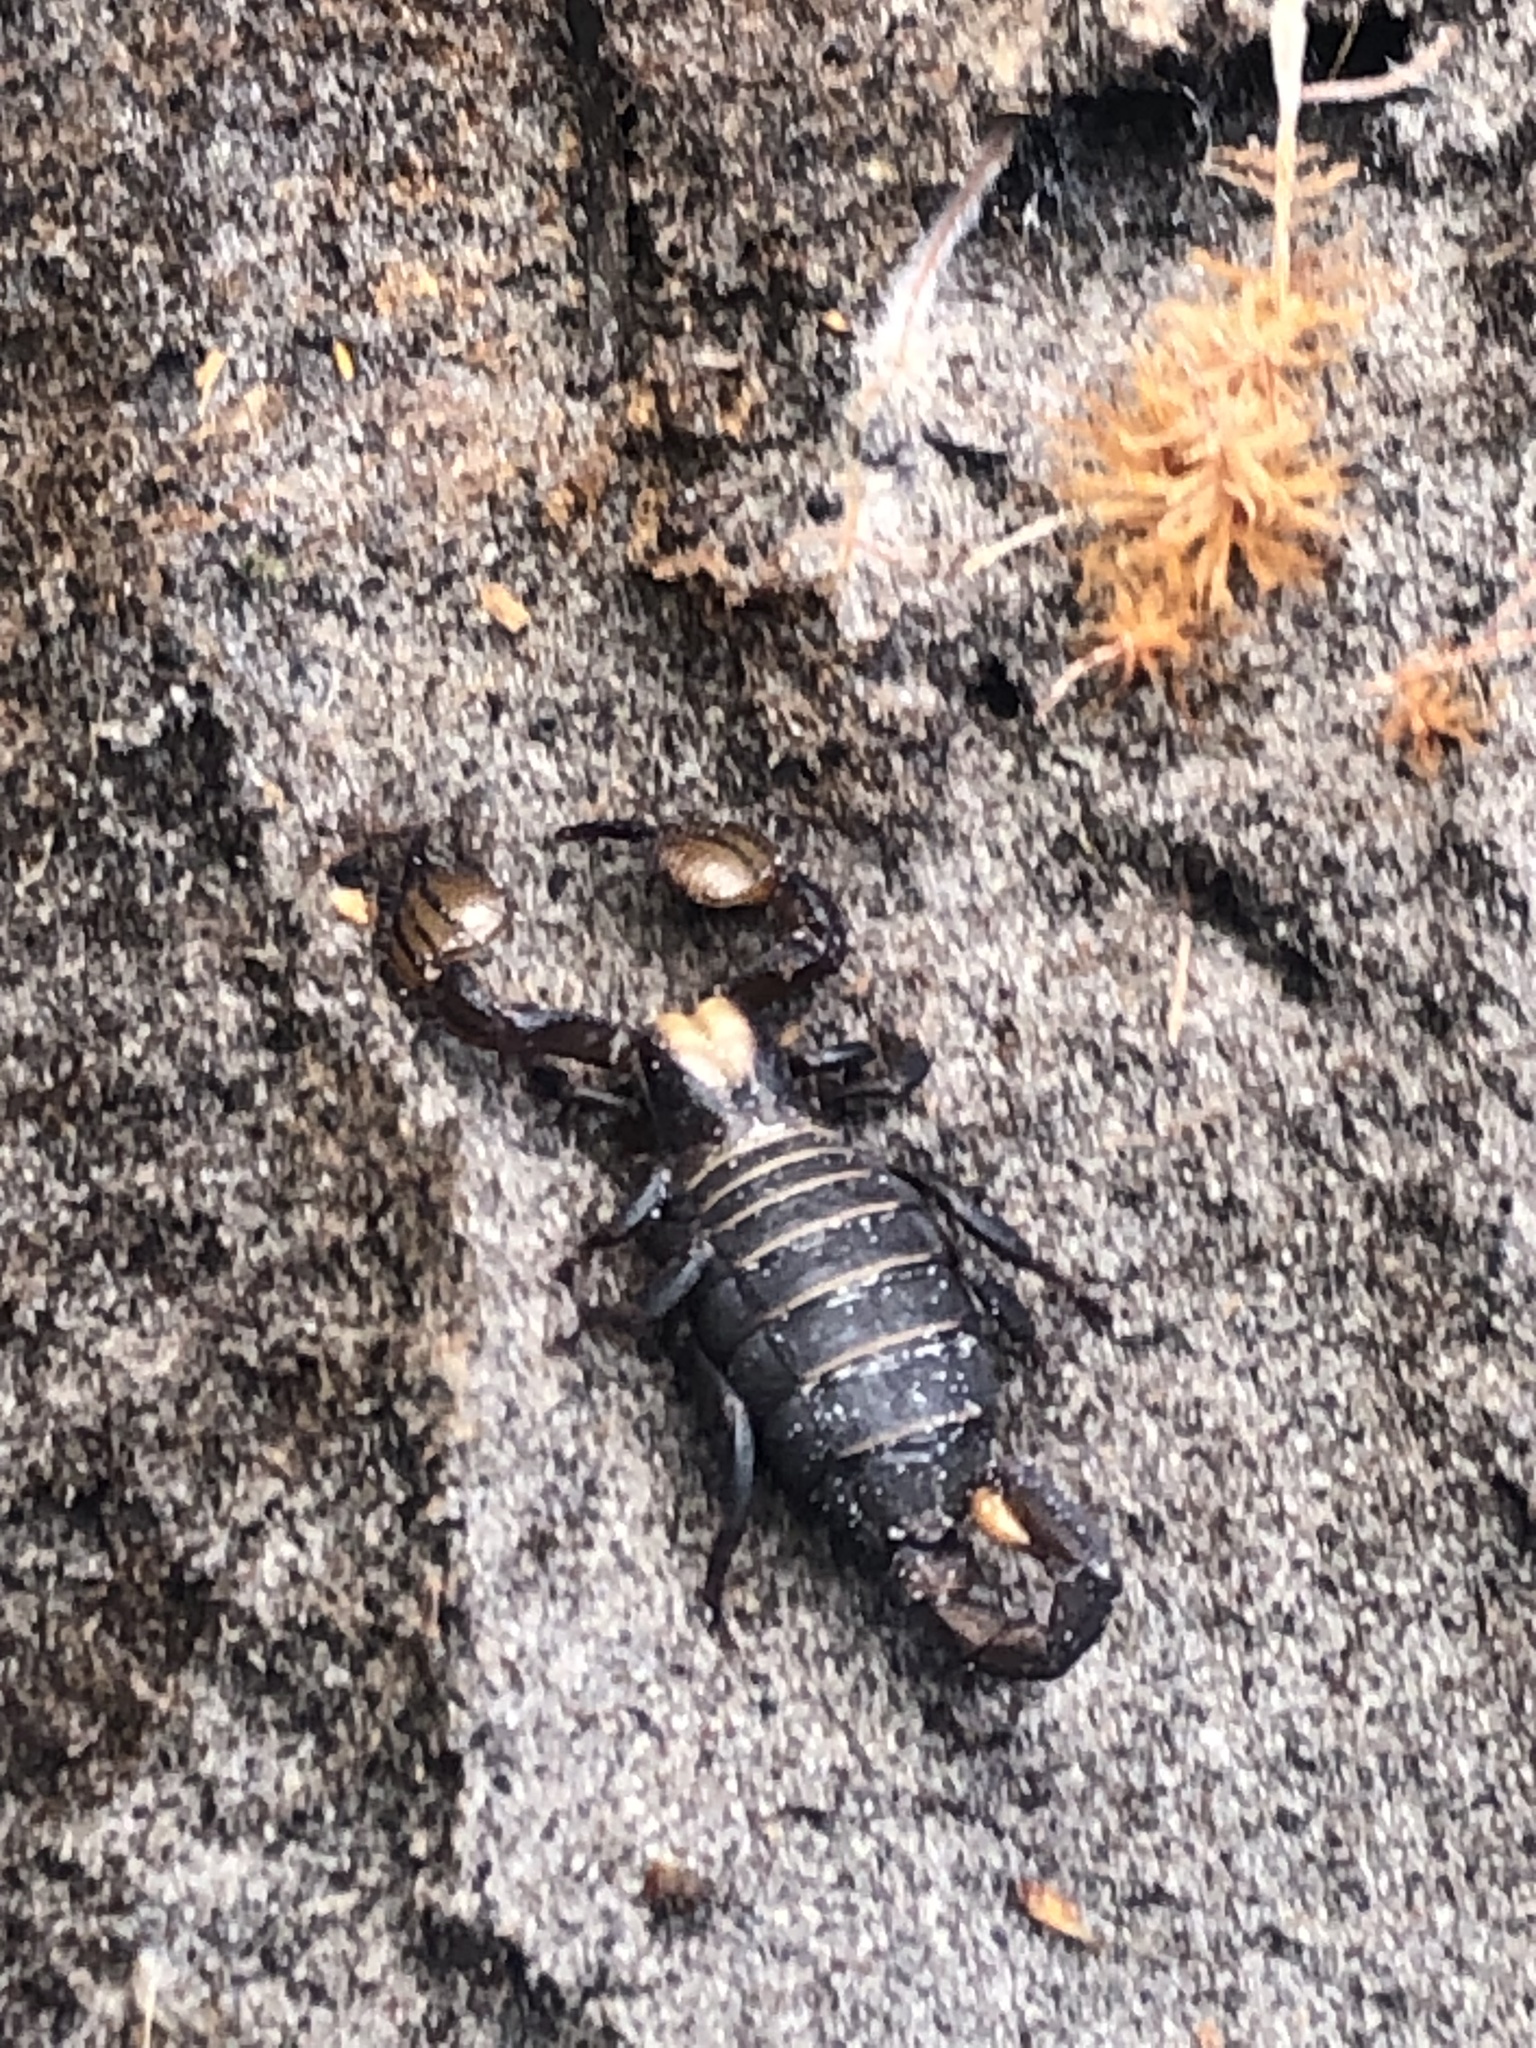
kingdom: Animalia
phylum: Arthropoda
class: Arachnida
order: Scorpiones
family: Scorpionidae
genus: Opistophthalmus
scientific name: Opistophthalmus macer
